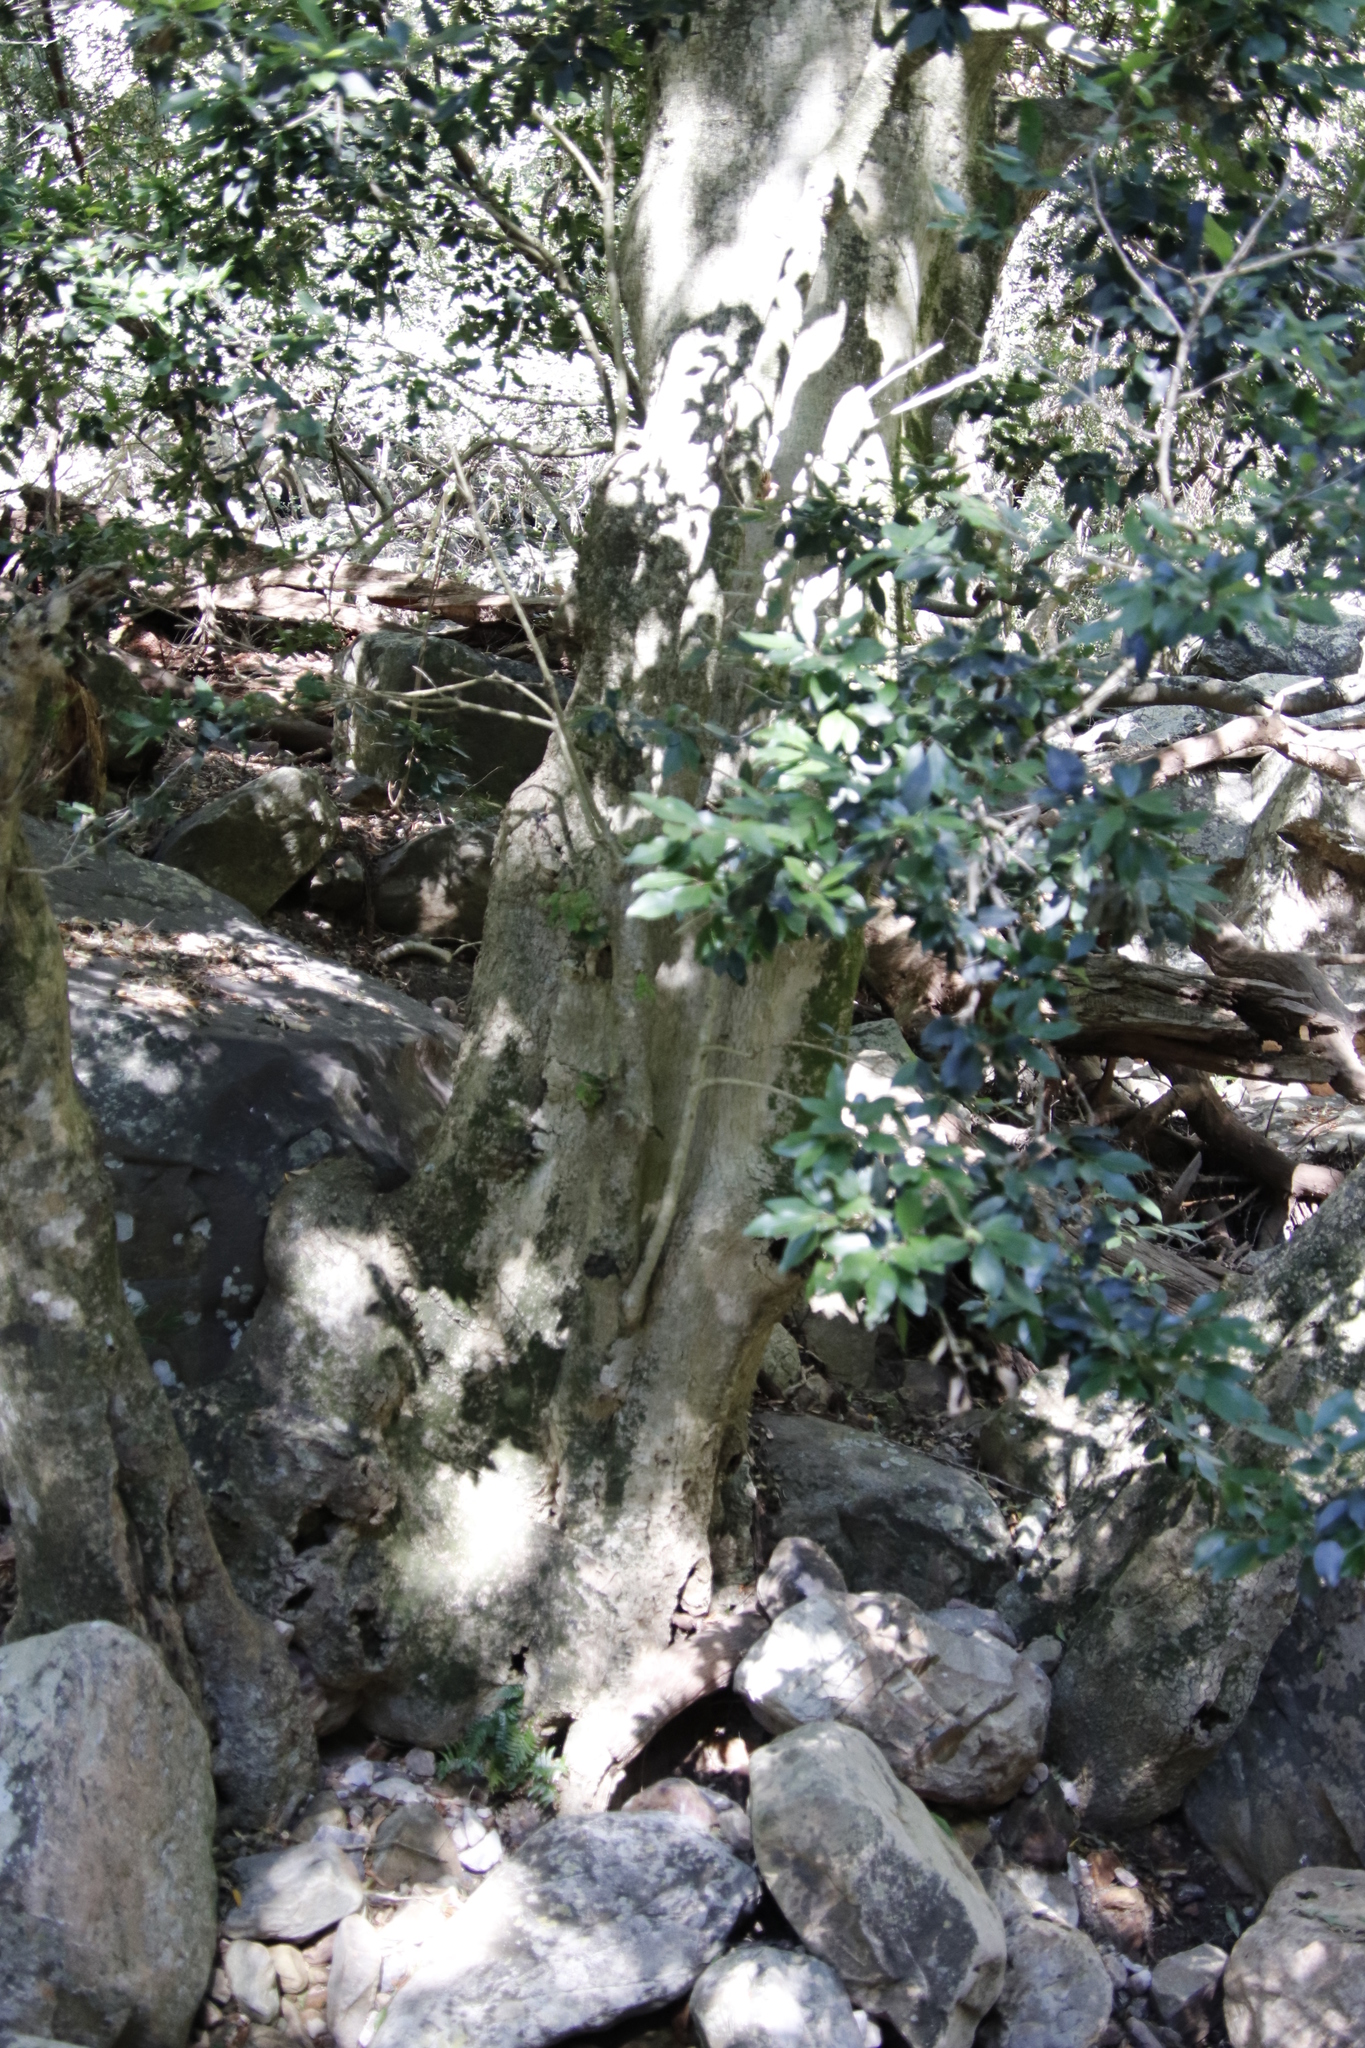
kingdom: Plantae
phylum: Tracheophyta
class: Magnoliopsida
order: Aquifoliales
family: Aquifoliaceae
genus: Ilex
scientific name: Ilex mitis
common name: African holly
